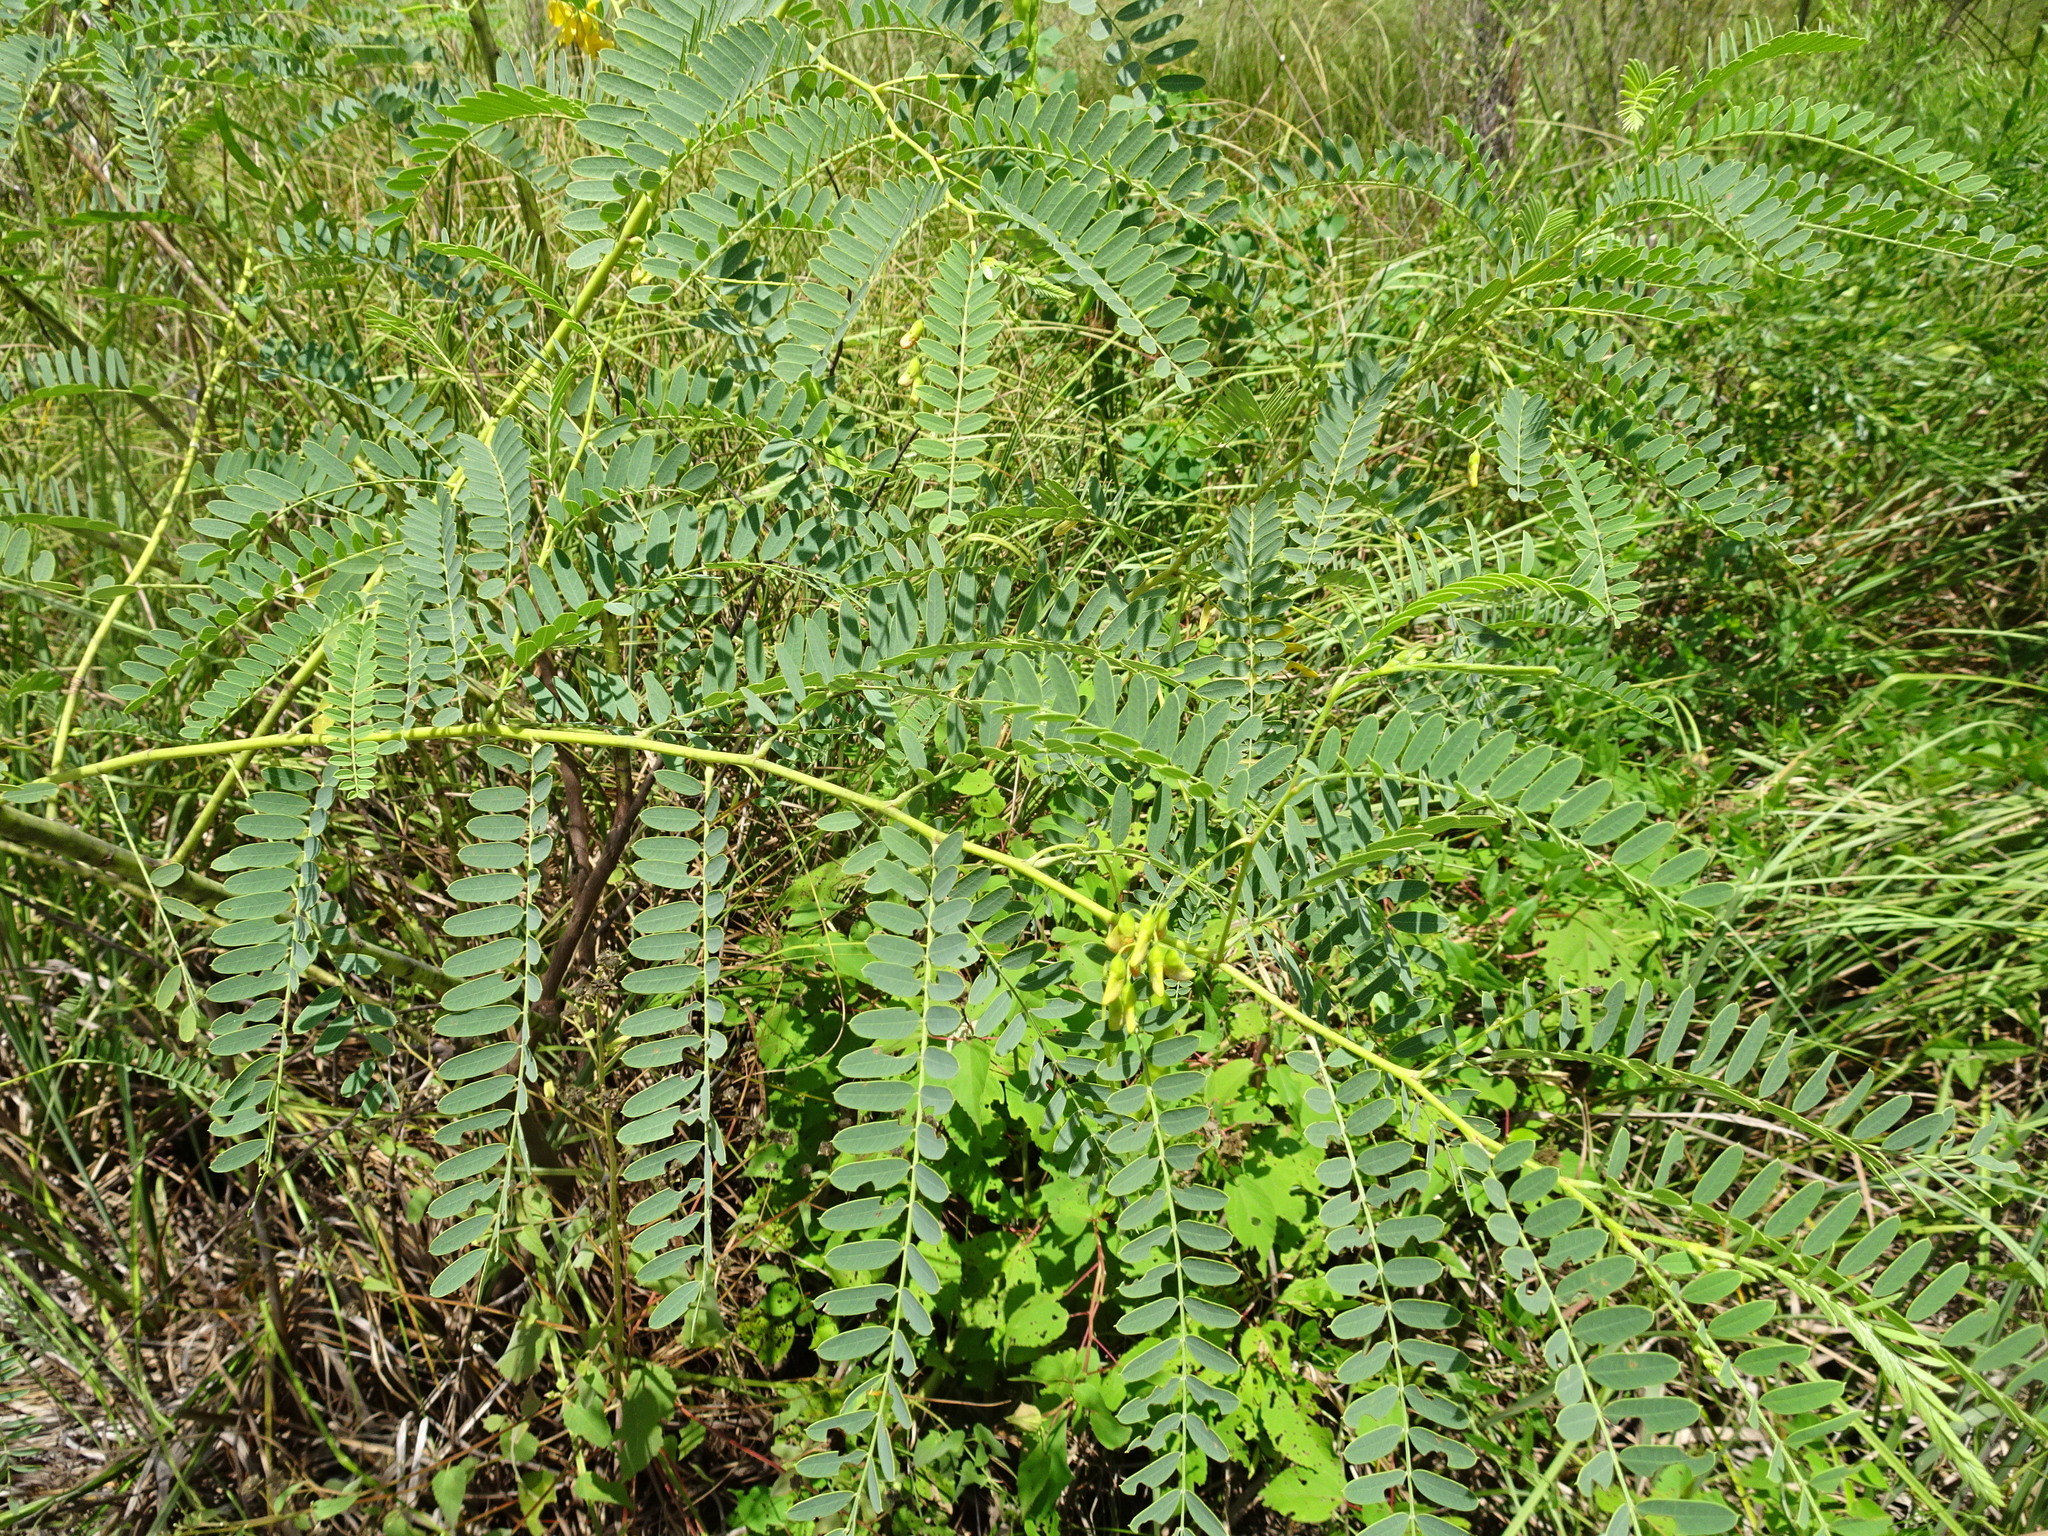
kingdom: Plantae
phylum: Tracheophyta
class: Magnoliopsida
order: Fabales
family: Fabaceae
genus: Sesbania
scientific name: Sesbania drummondii
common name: Poison-bean
